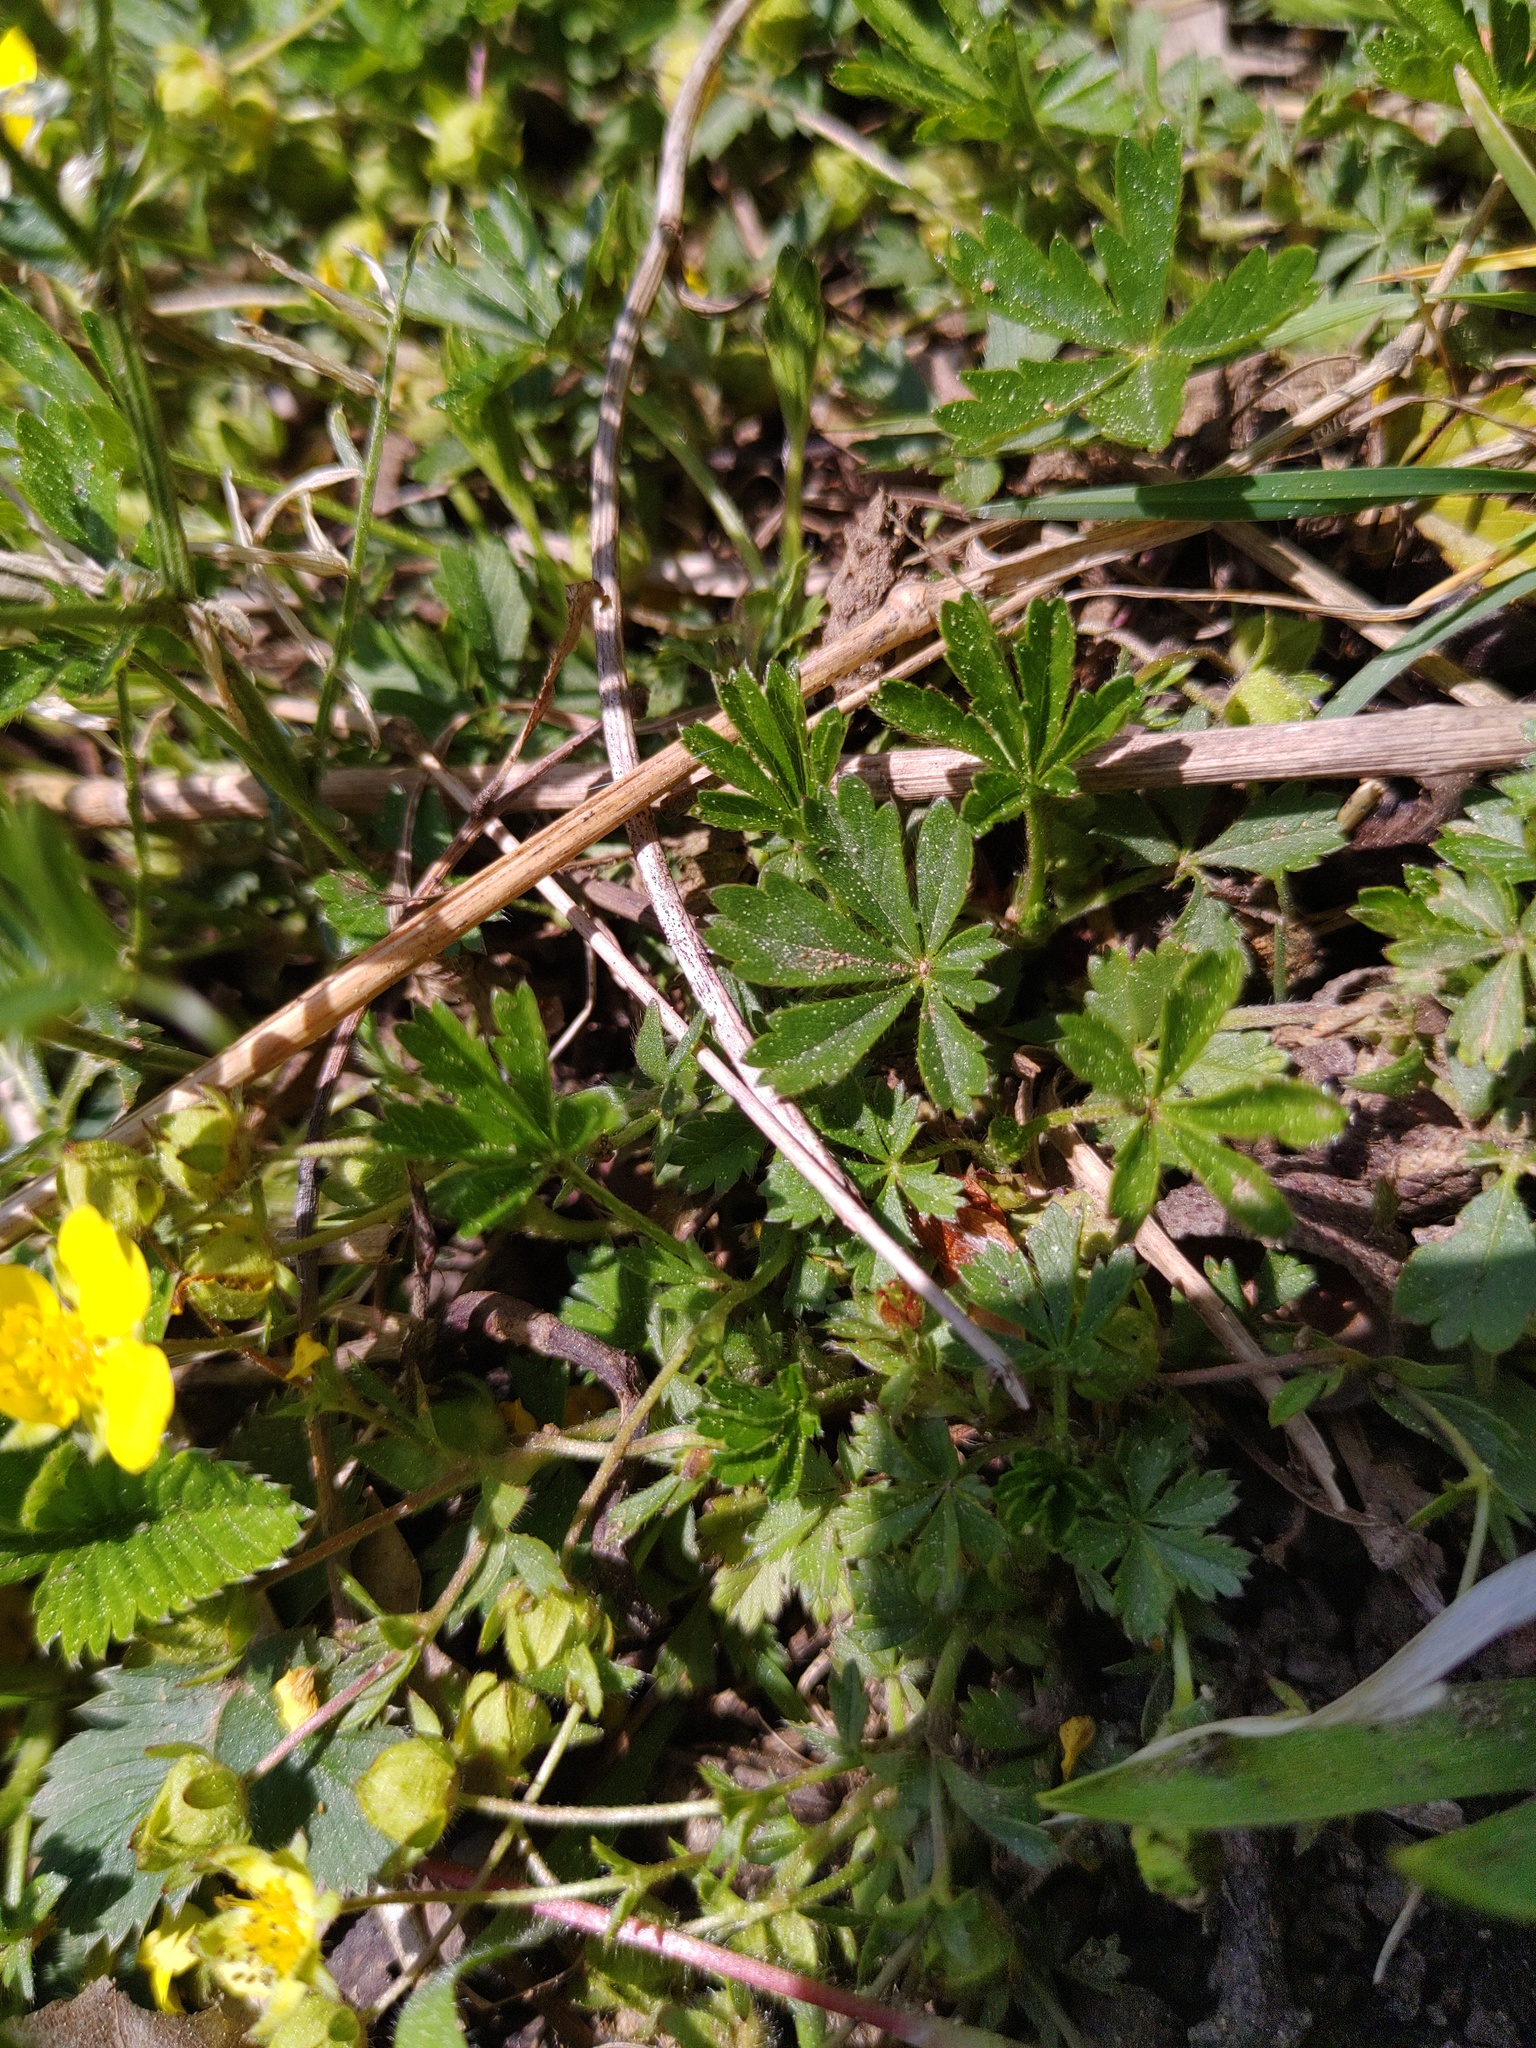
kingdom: Plantae
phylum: Tracheophyta
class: Magnoliopsida
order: Rosales
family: Rosaceae
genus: Potentilla
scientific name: Potentilla heptaphylla
